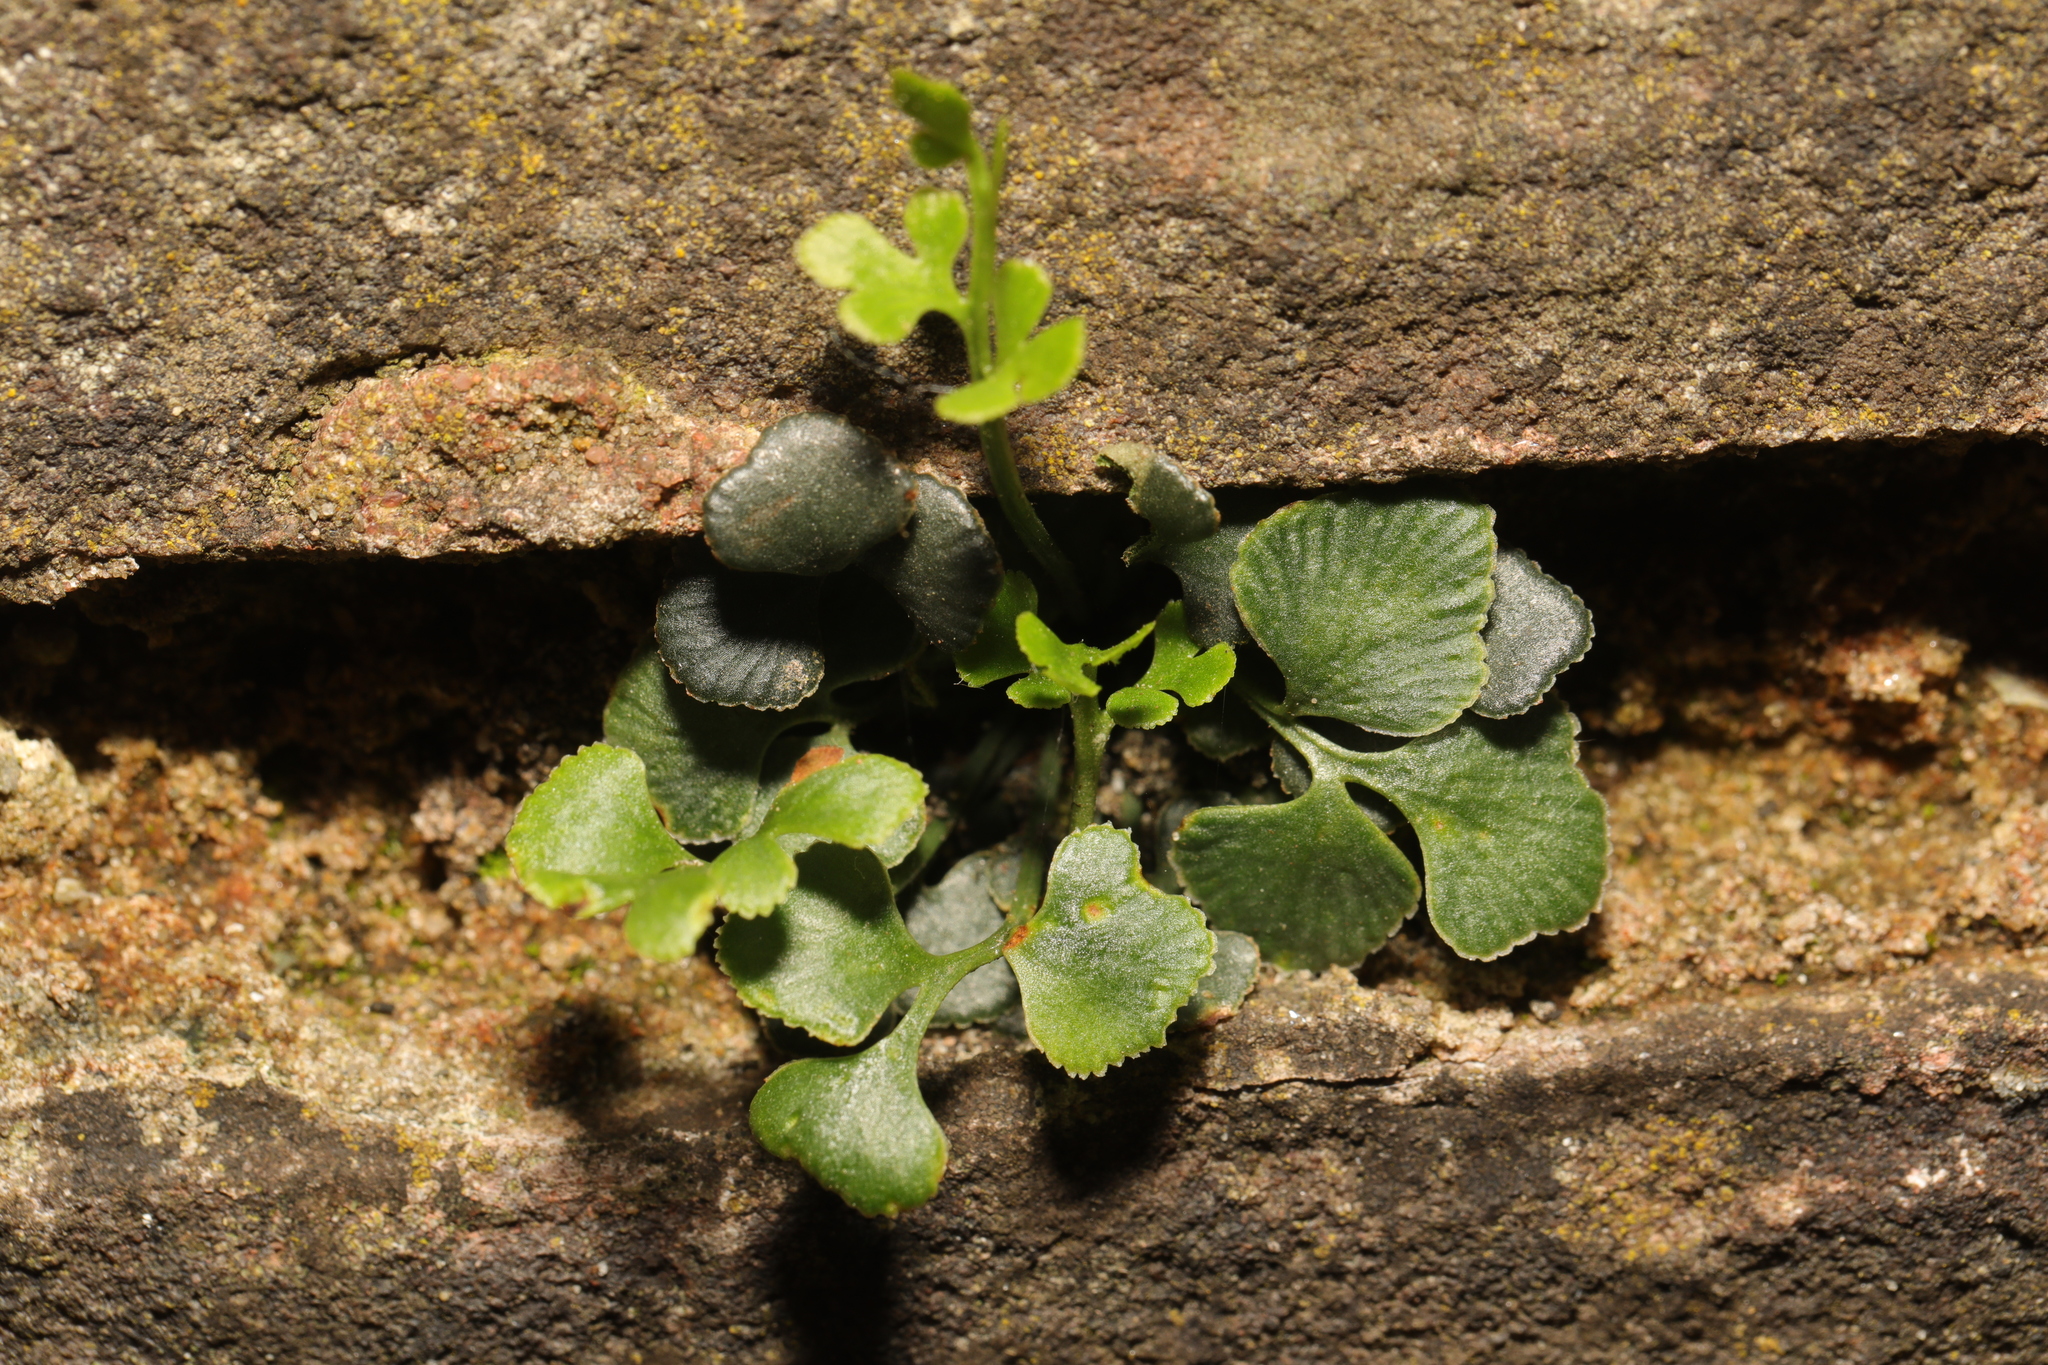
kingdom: Plantae
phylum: Tracheophyta
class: Polypodiopsida
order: Polypodiales
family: Aspleniaceae
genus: Asplenium
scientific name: Asplenium ruta-muraria
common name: Wall-rue
